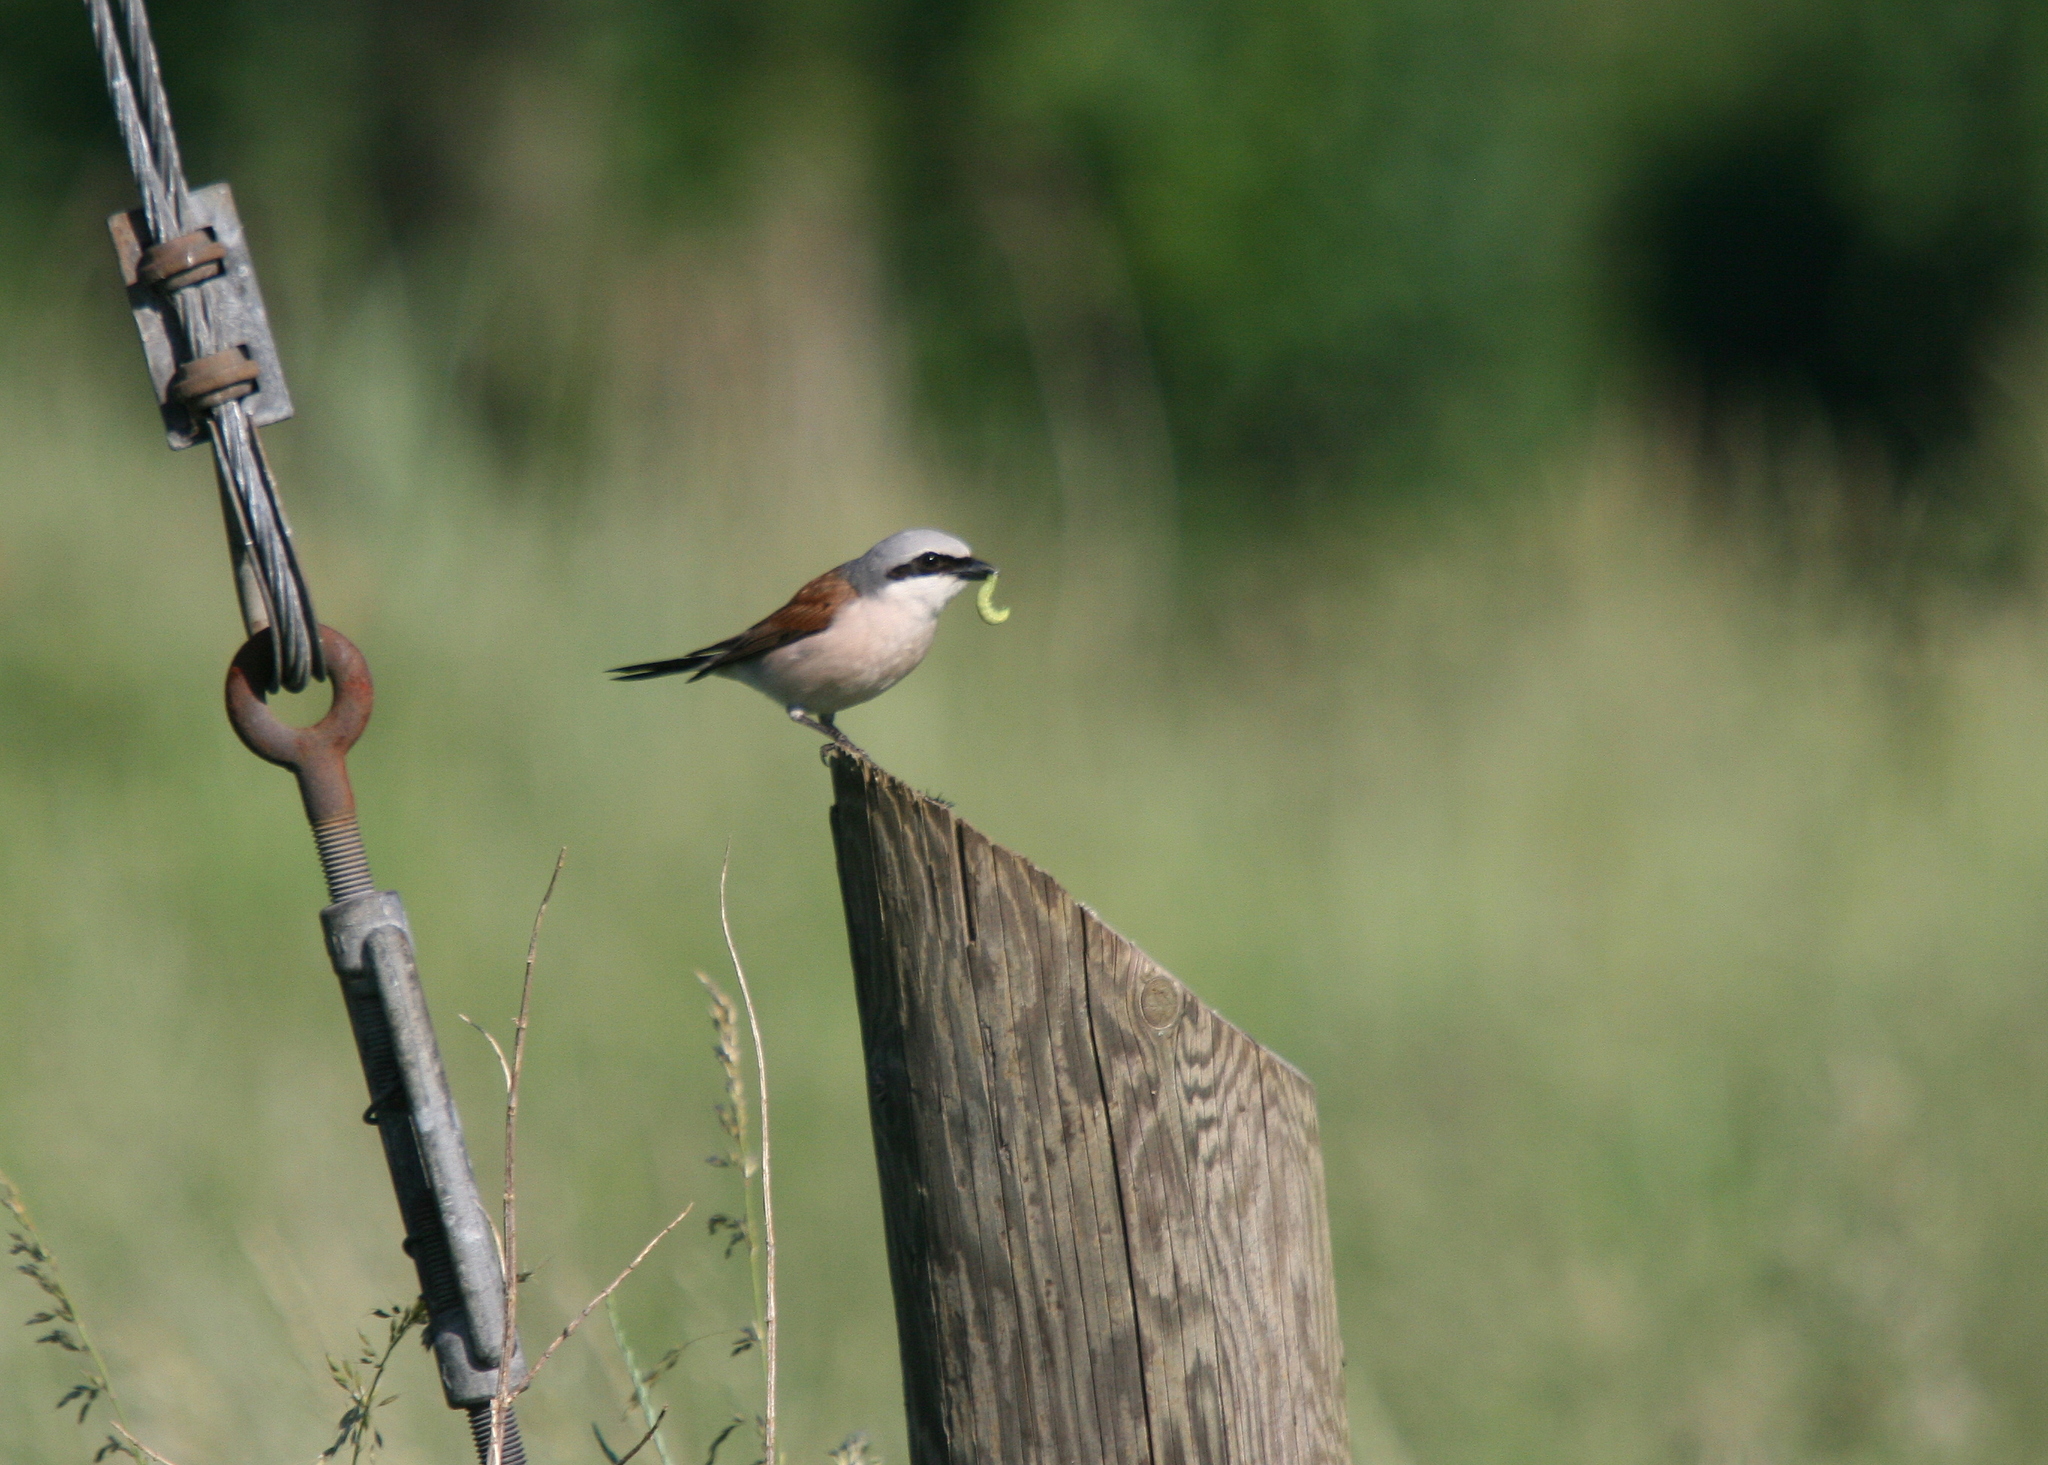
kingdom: Animalia
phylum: Chordata
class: Aves
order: Passeriformes
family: Laniidae
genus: Lanius
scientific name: Lanius collurio
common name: Red-backed shrike
